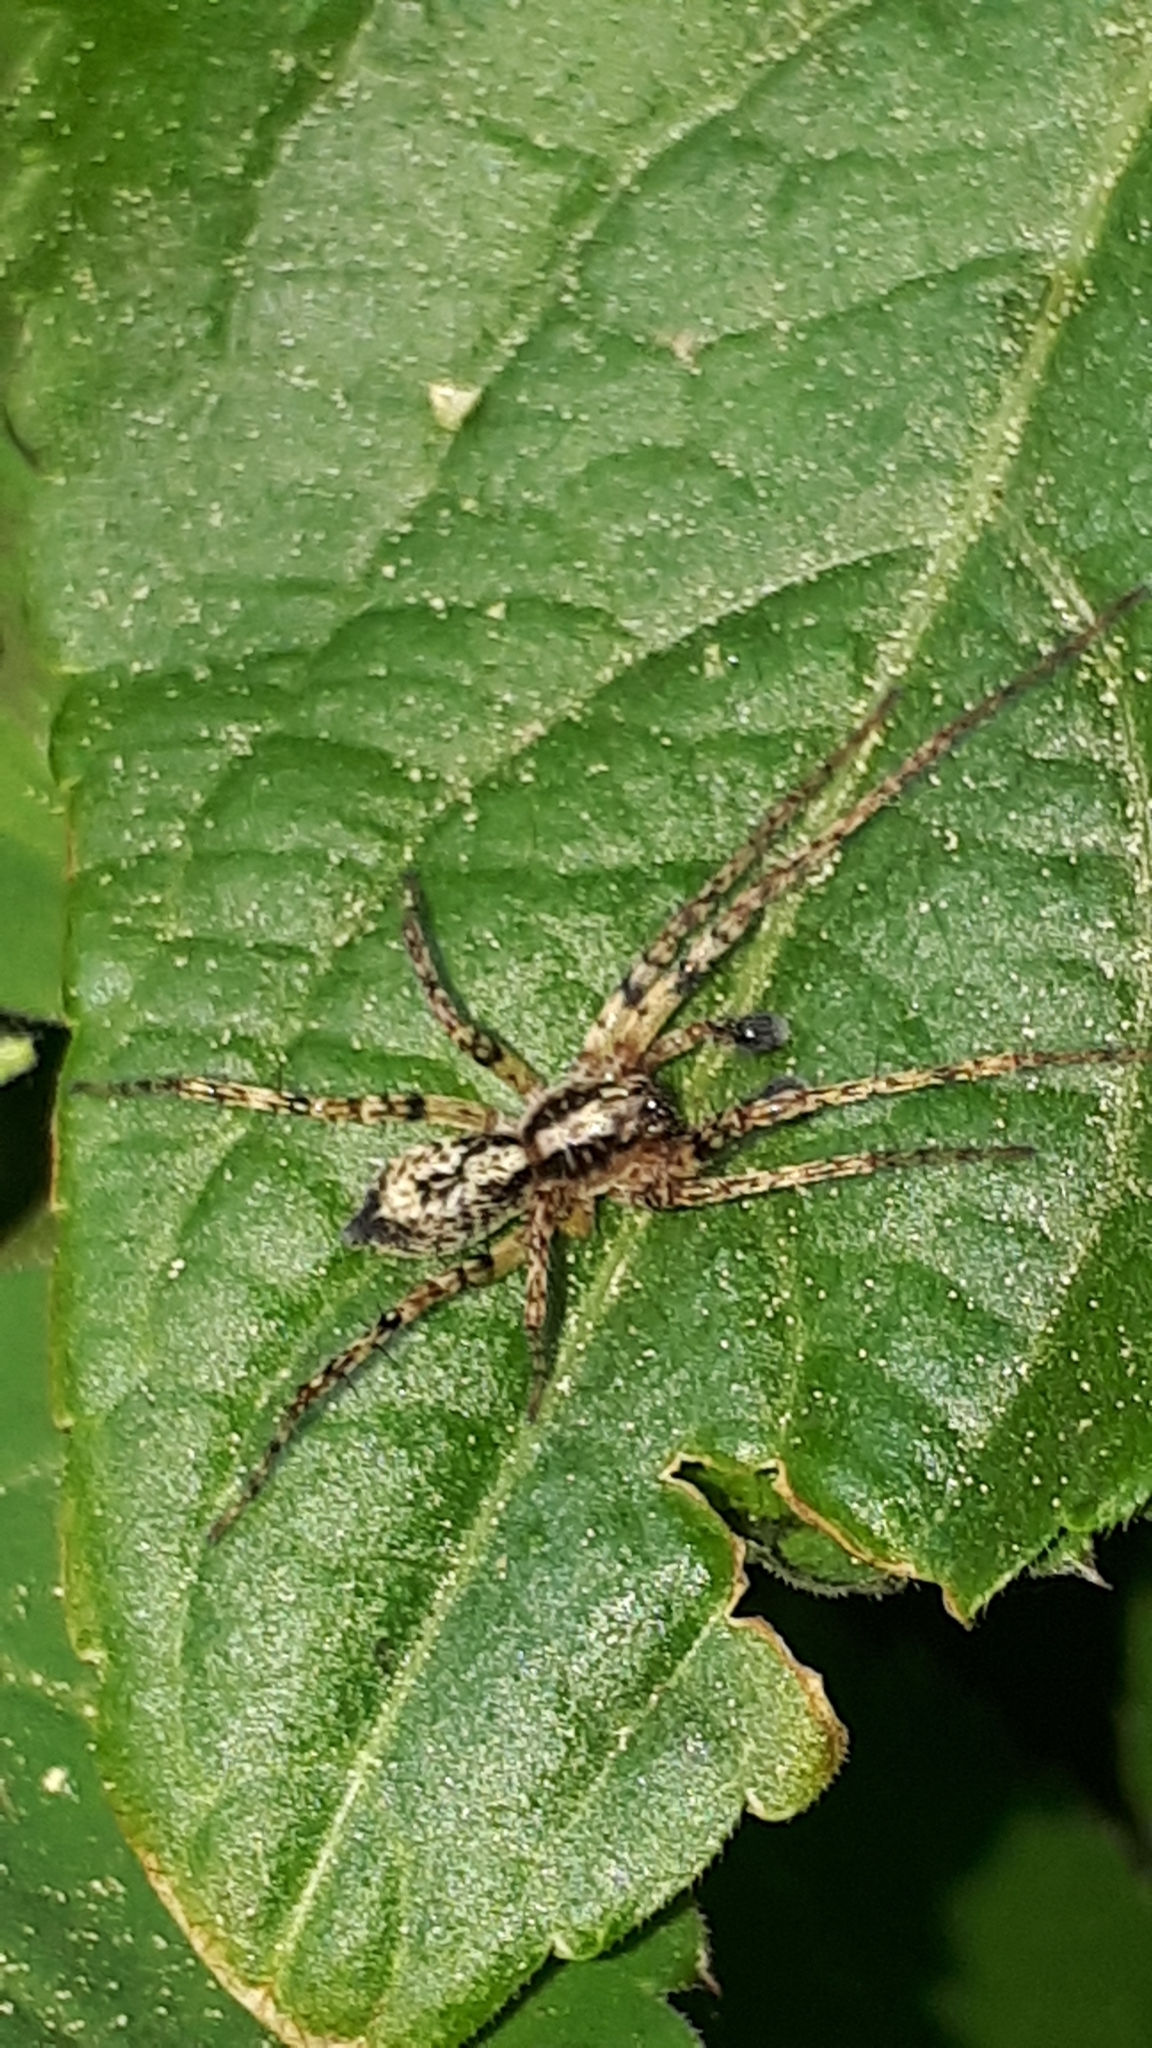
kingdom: Animalia
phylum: Arthropoda
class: Arachnida
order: Araneae
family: Anyphaenidae
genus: Anyphaena
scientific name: Anyphaena accentuata
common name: Buzzing spider
